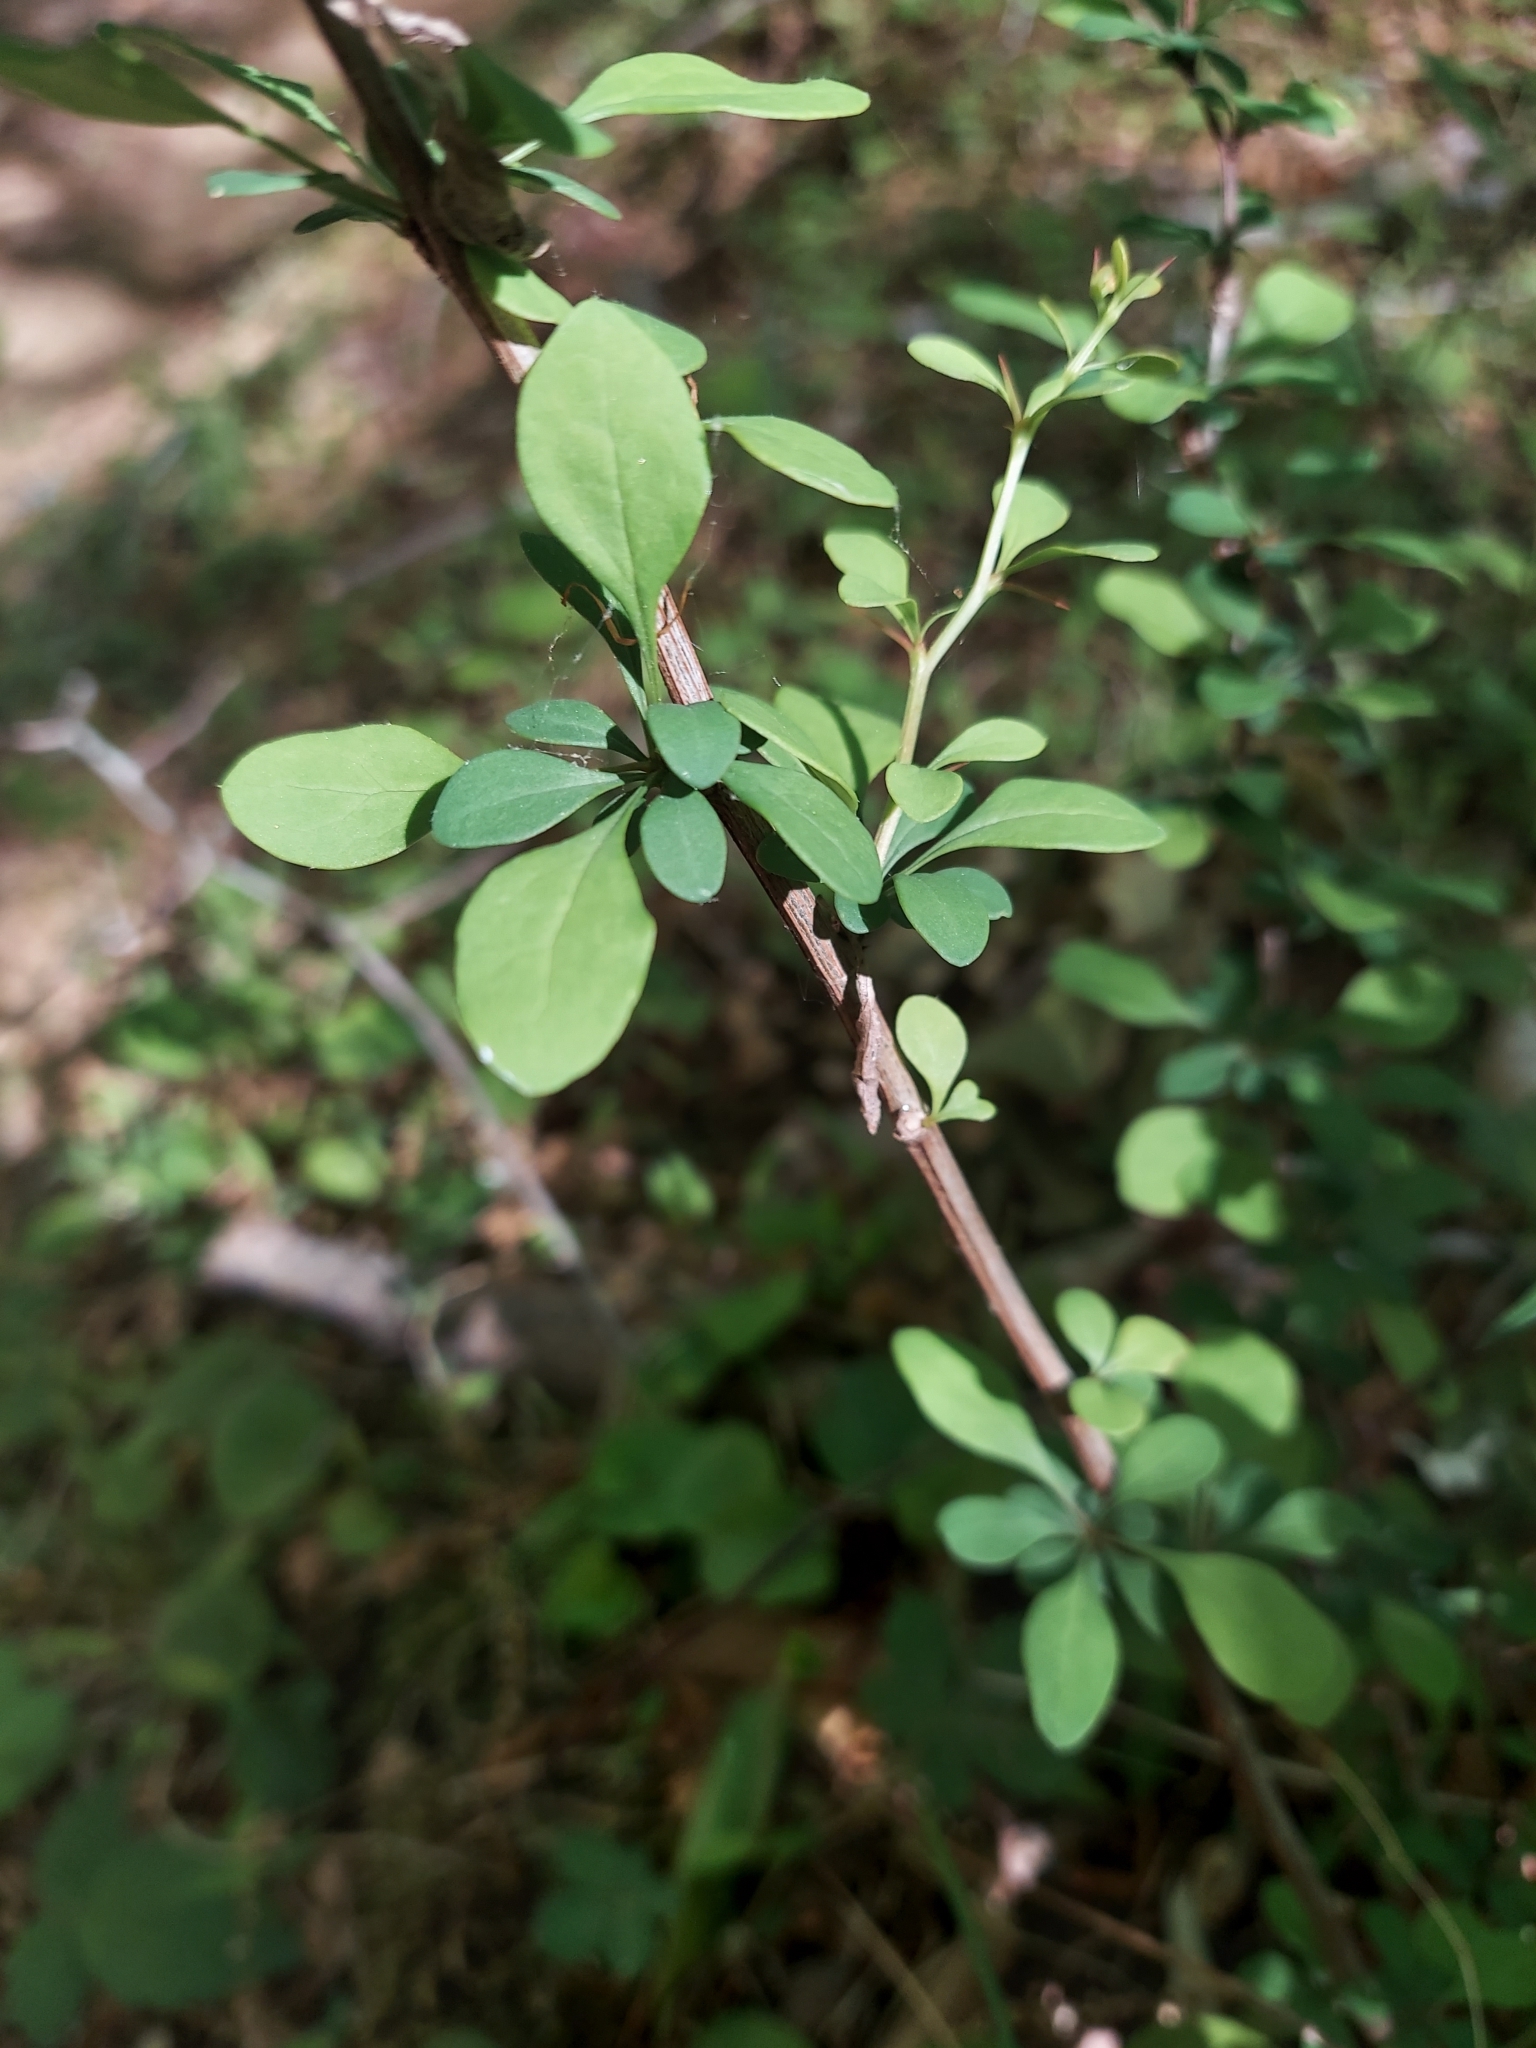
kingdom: Plantae
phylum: Tracheophyta
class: Magnoliopsida
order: Ranunculales
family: Berberidaceae
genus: Berberis
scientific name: Berberis thunbergii
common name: Japanese barberry
